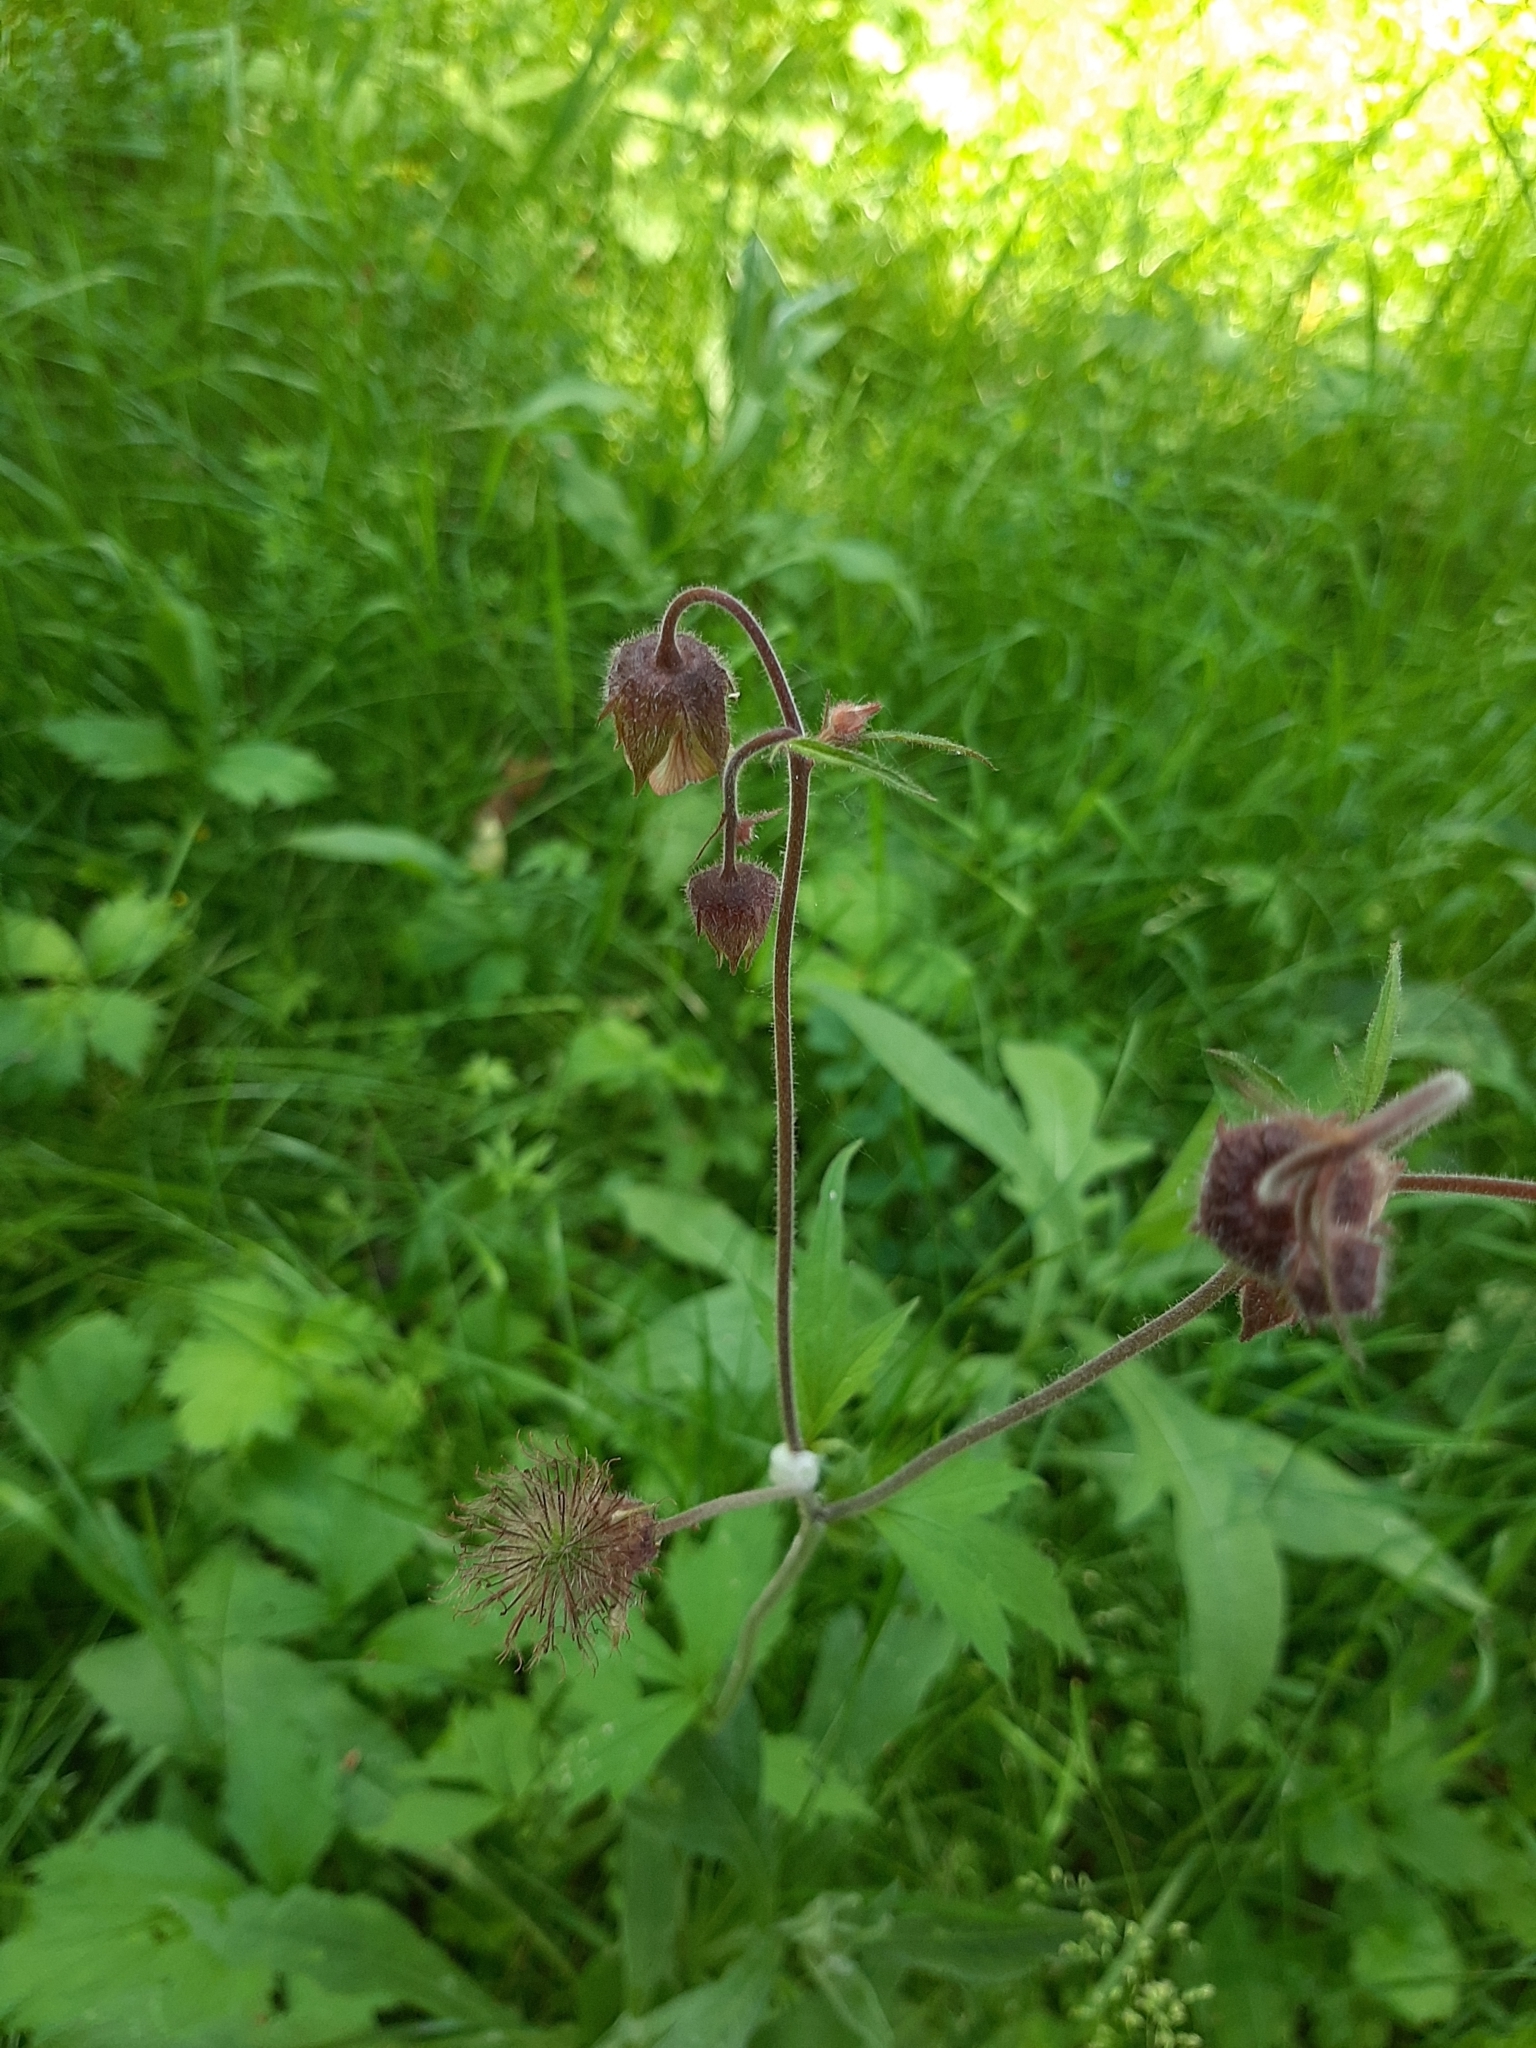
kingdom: Plantae
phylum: Tracheophyta
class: Magnoliopsida
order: Rosales
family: Rosaceae
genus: Geum
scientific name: Geum rivale
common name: Water avens
